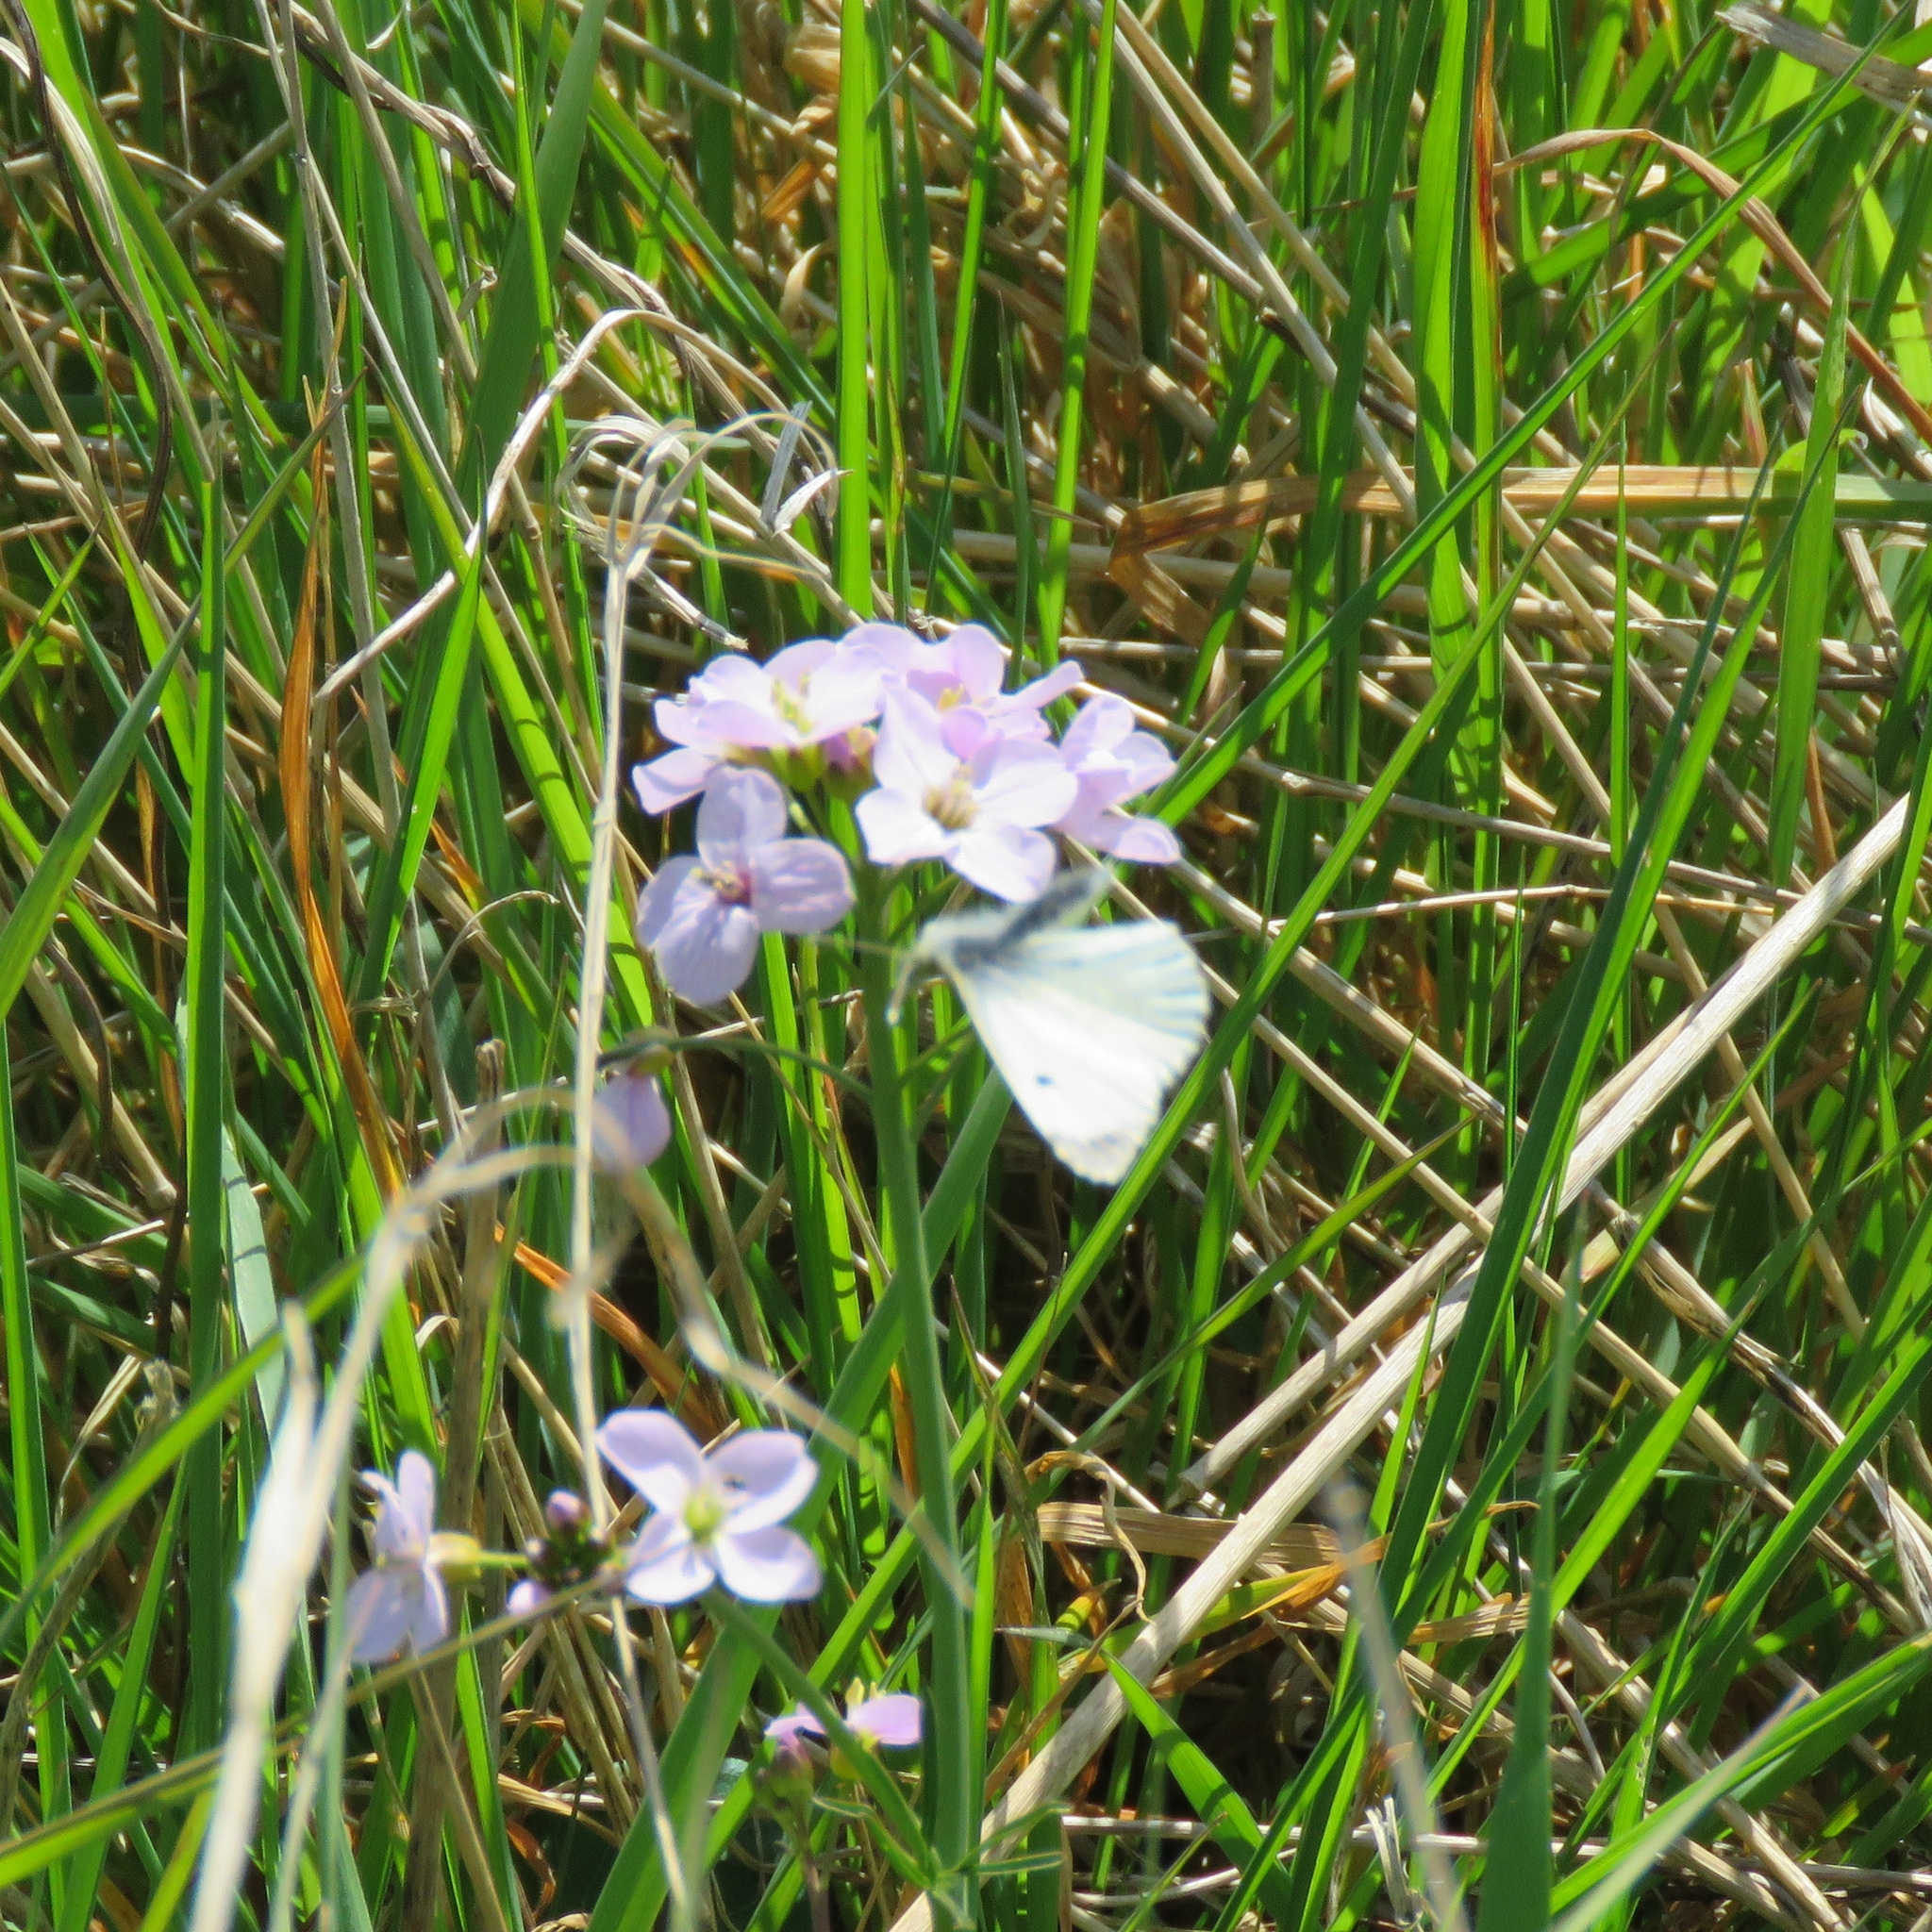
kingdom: Plantae
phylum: Tracheophyta
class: Magnoliopsida
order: Brassicales
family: Brassicaceae
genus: Cardamine
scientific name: Cardamine pratensis
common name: Cuckoo flower
